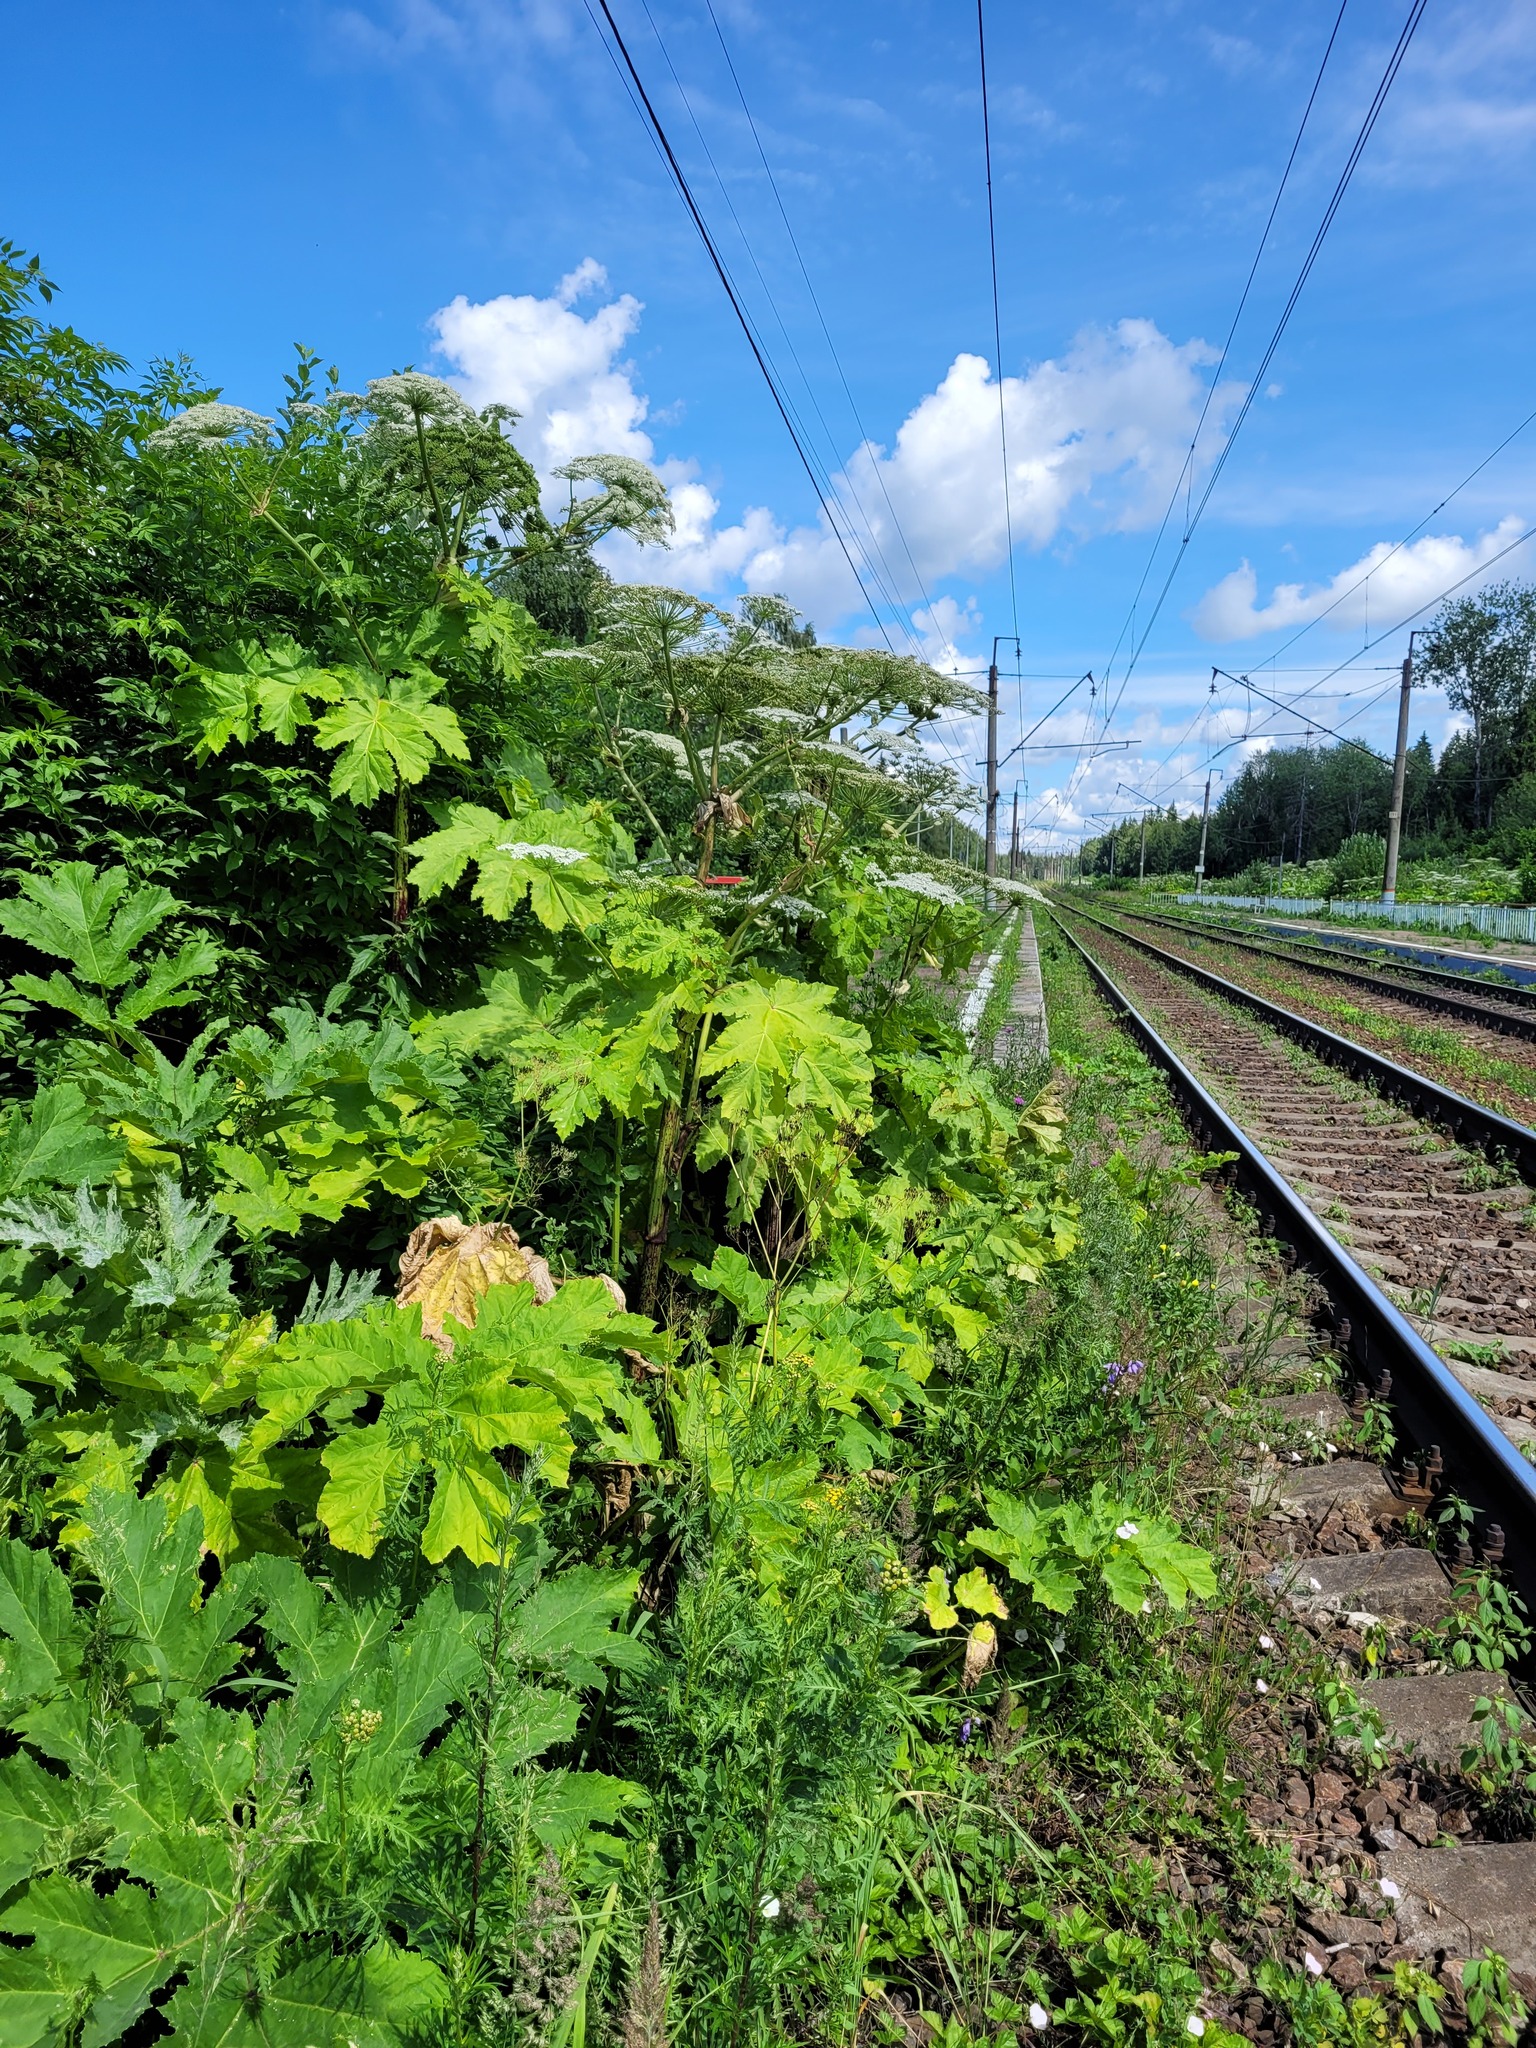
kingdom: Plantae
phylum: Tracheophyta
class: Magnoliopsida
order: Apiales
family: Apiaceae
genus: Heracleum
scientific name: Heracleum sosnowskyi
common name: Sosnowsky's hogweed
